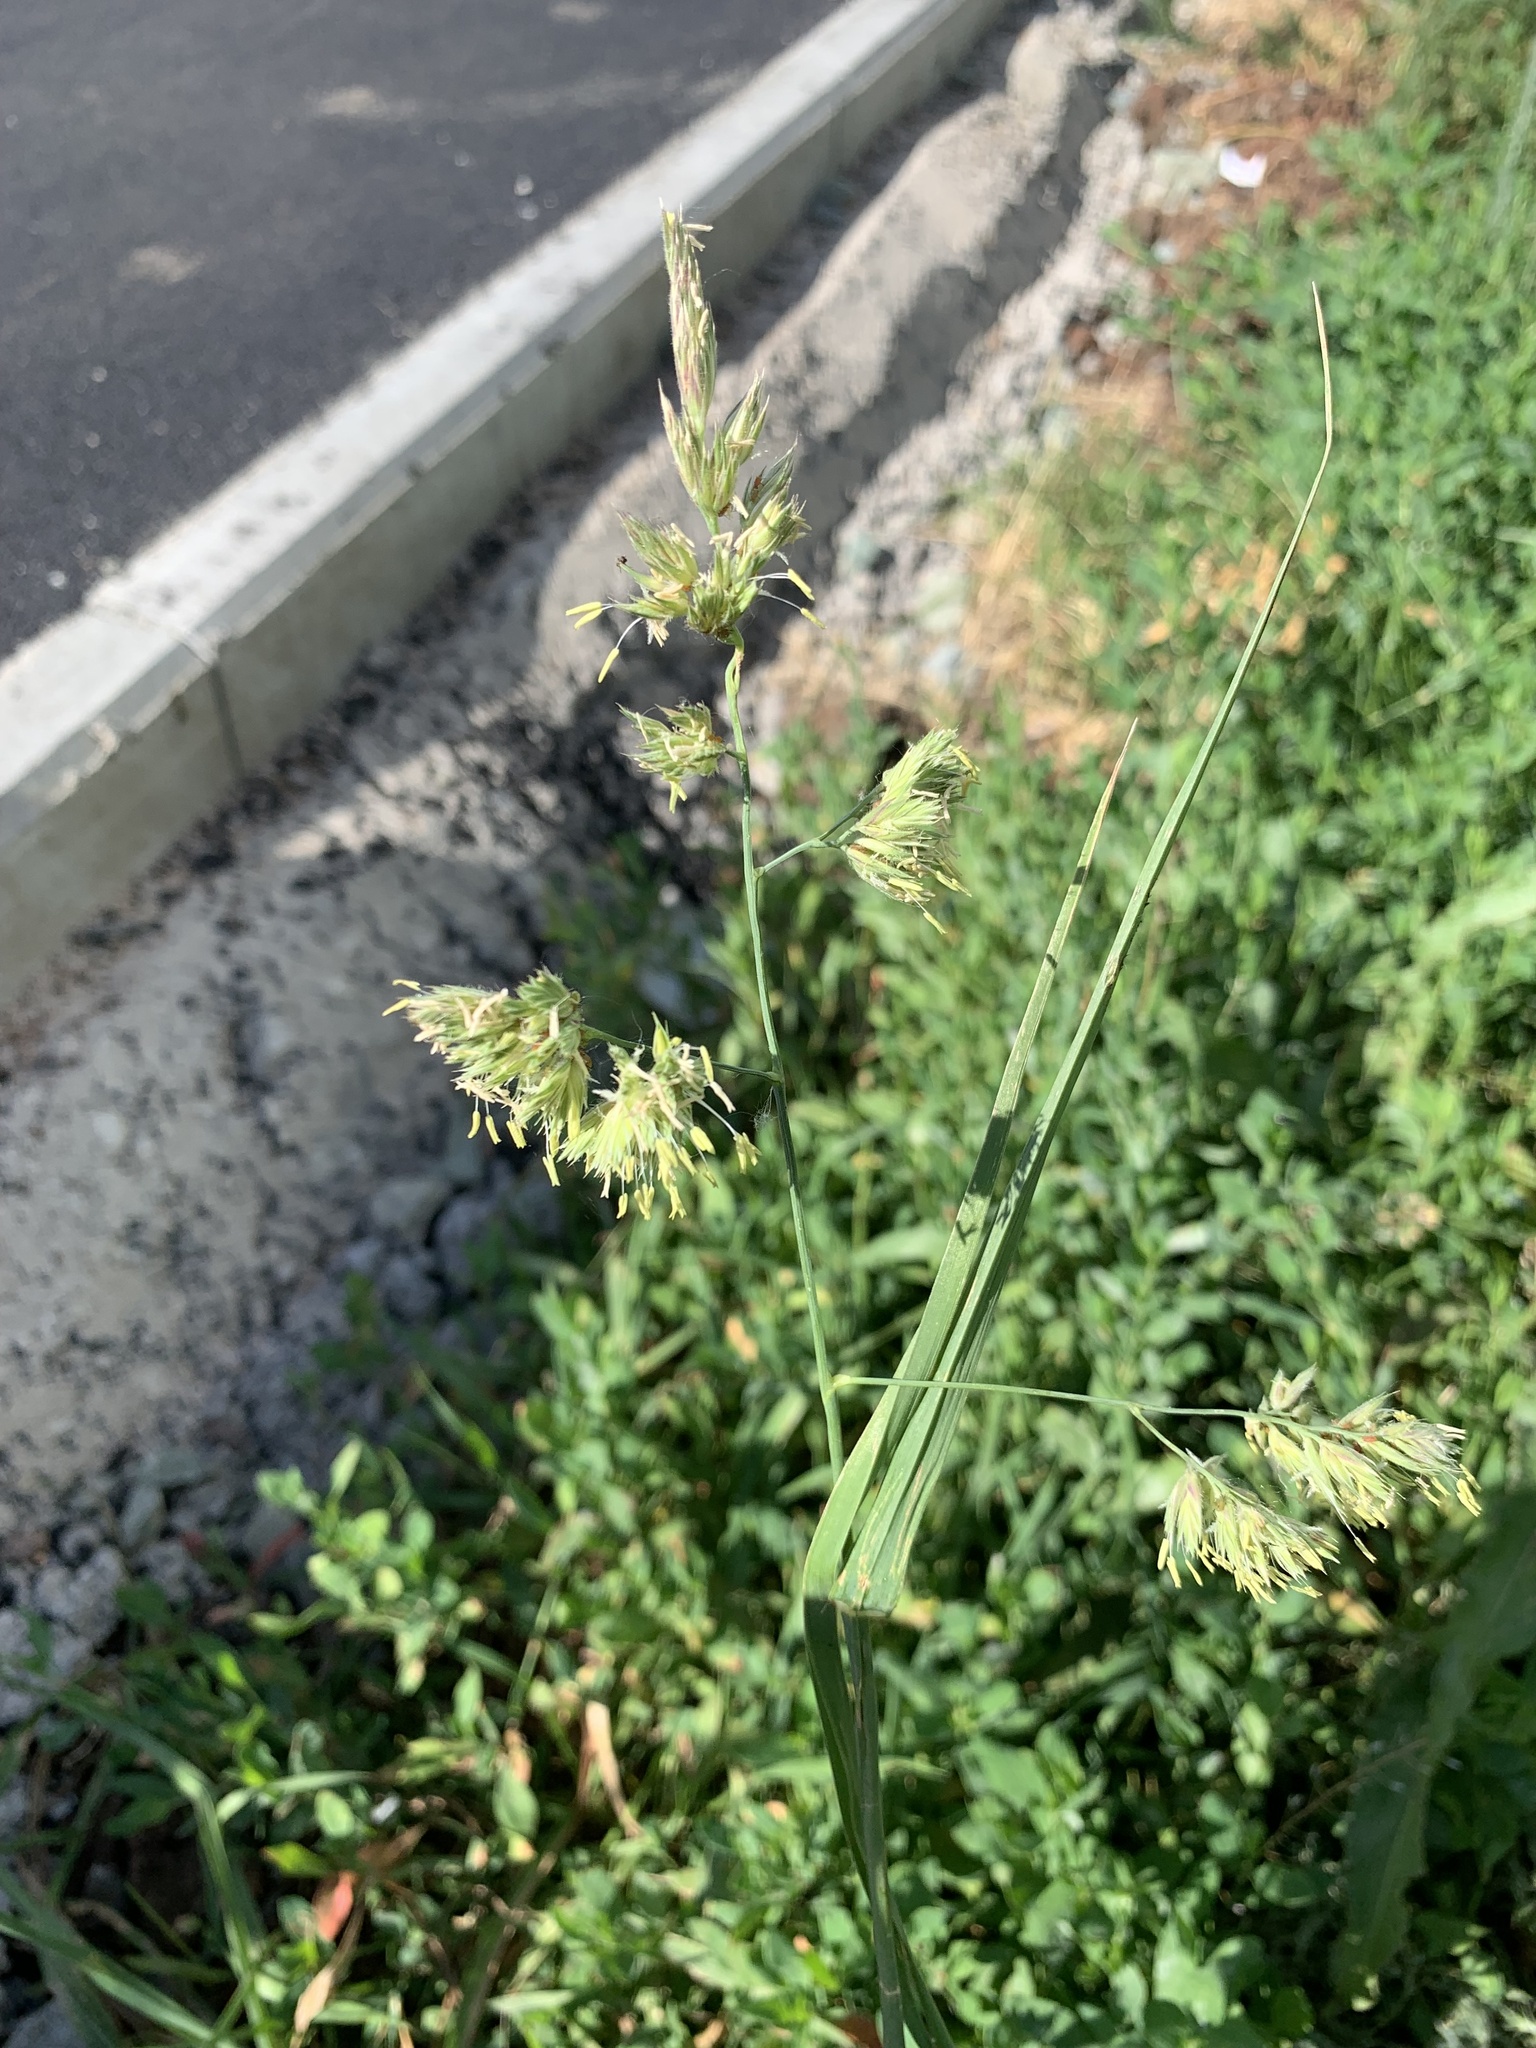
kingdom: Plantae
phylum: Tracheophyta
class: Liliopsida
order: Poales
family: Poaceae
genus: Dactylis
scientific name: Dactylis glomerata
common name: Orchardgrass
